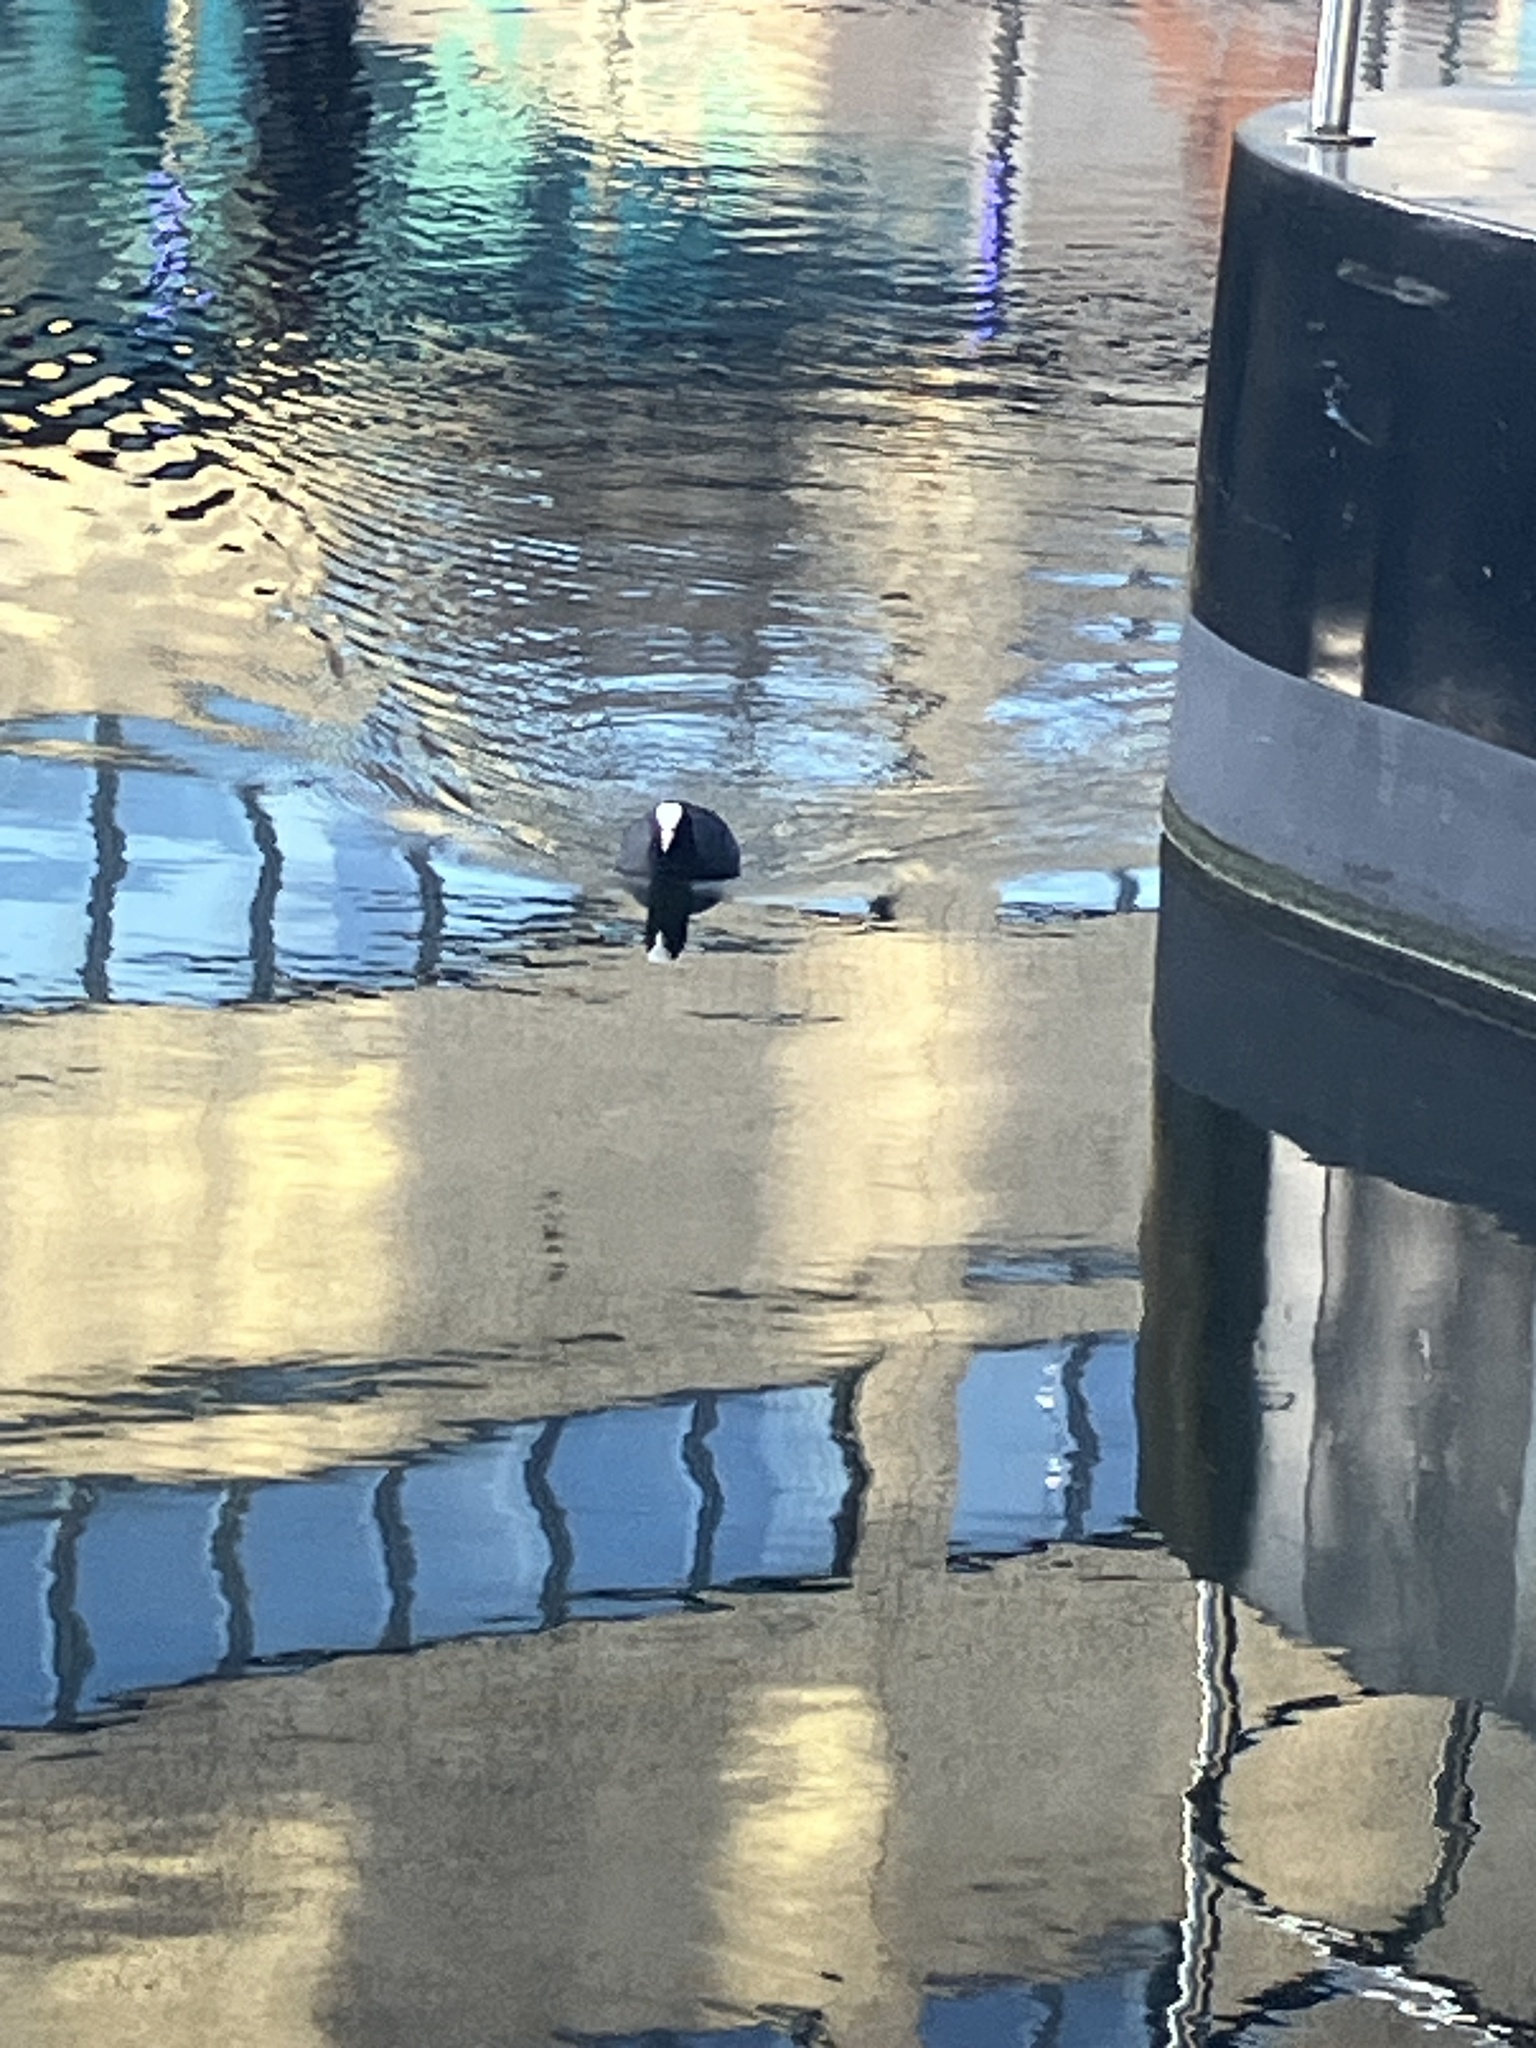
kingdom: Animalia
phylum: Chordata
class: Aves
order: Gruiformes
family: Rallidae
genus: Fulica
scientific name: Fulica atra
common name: Eurasian coot
